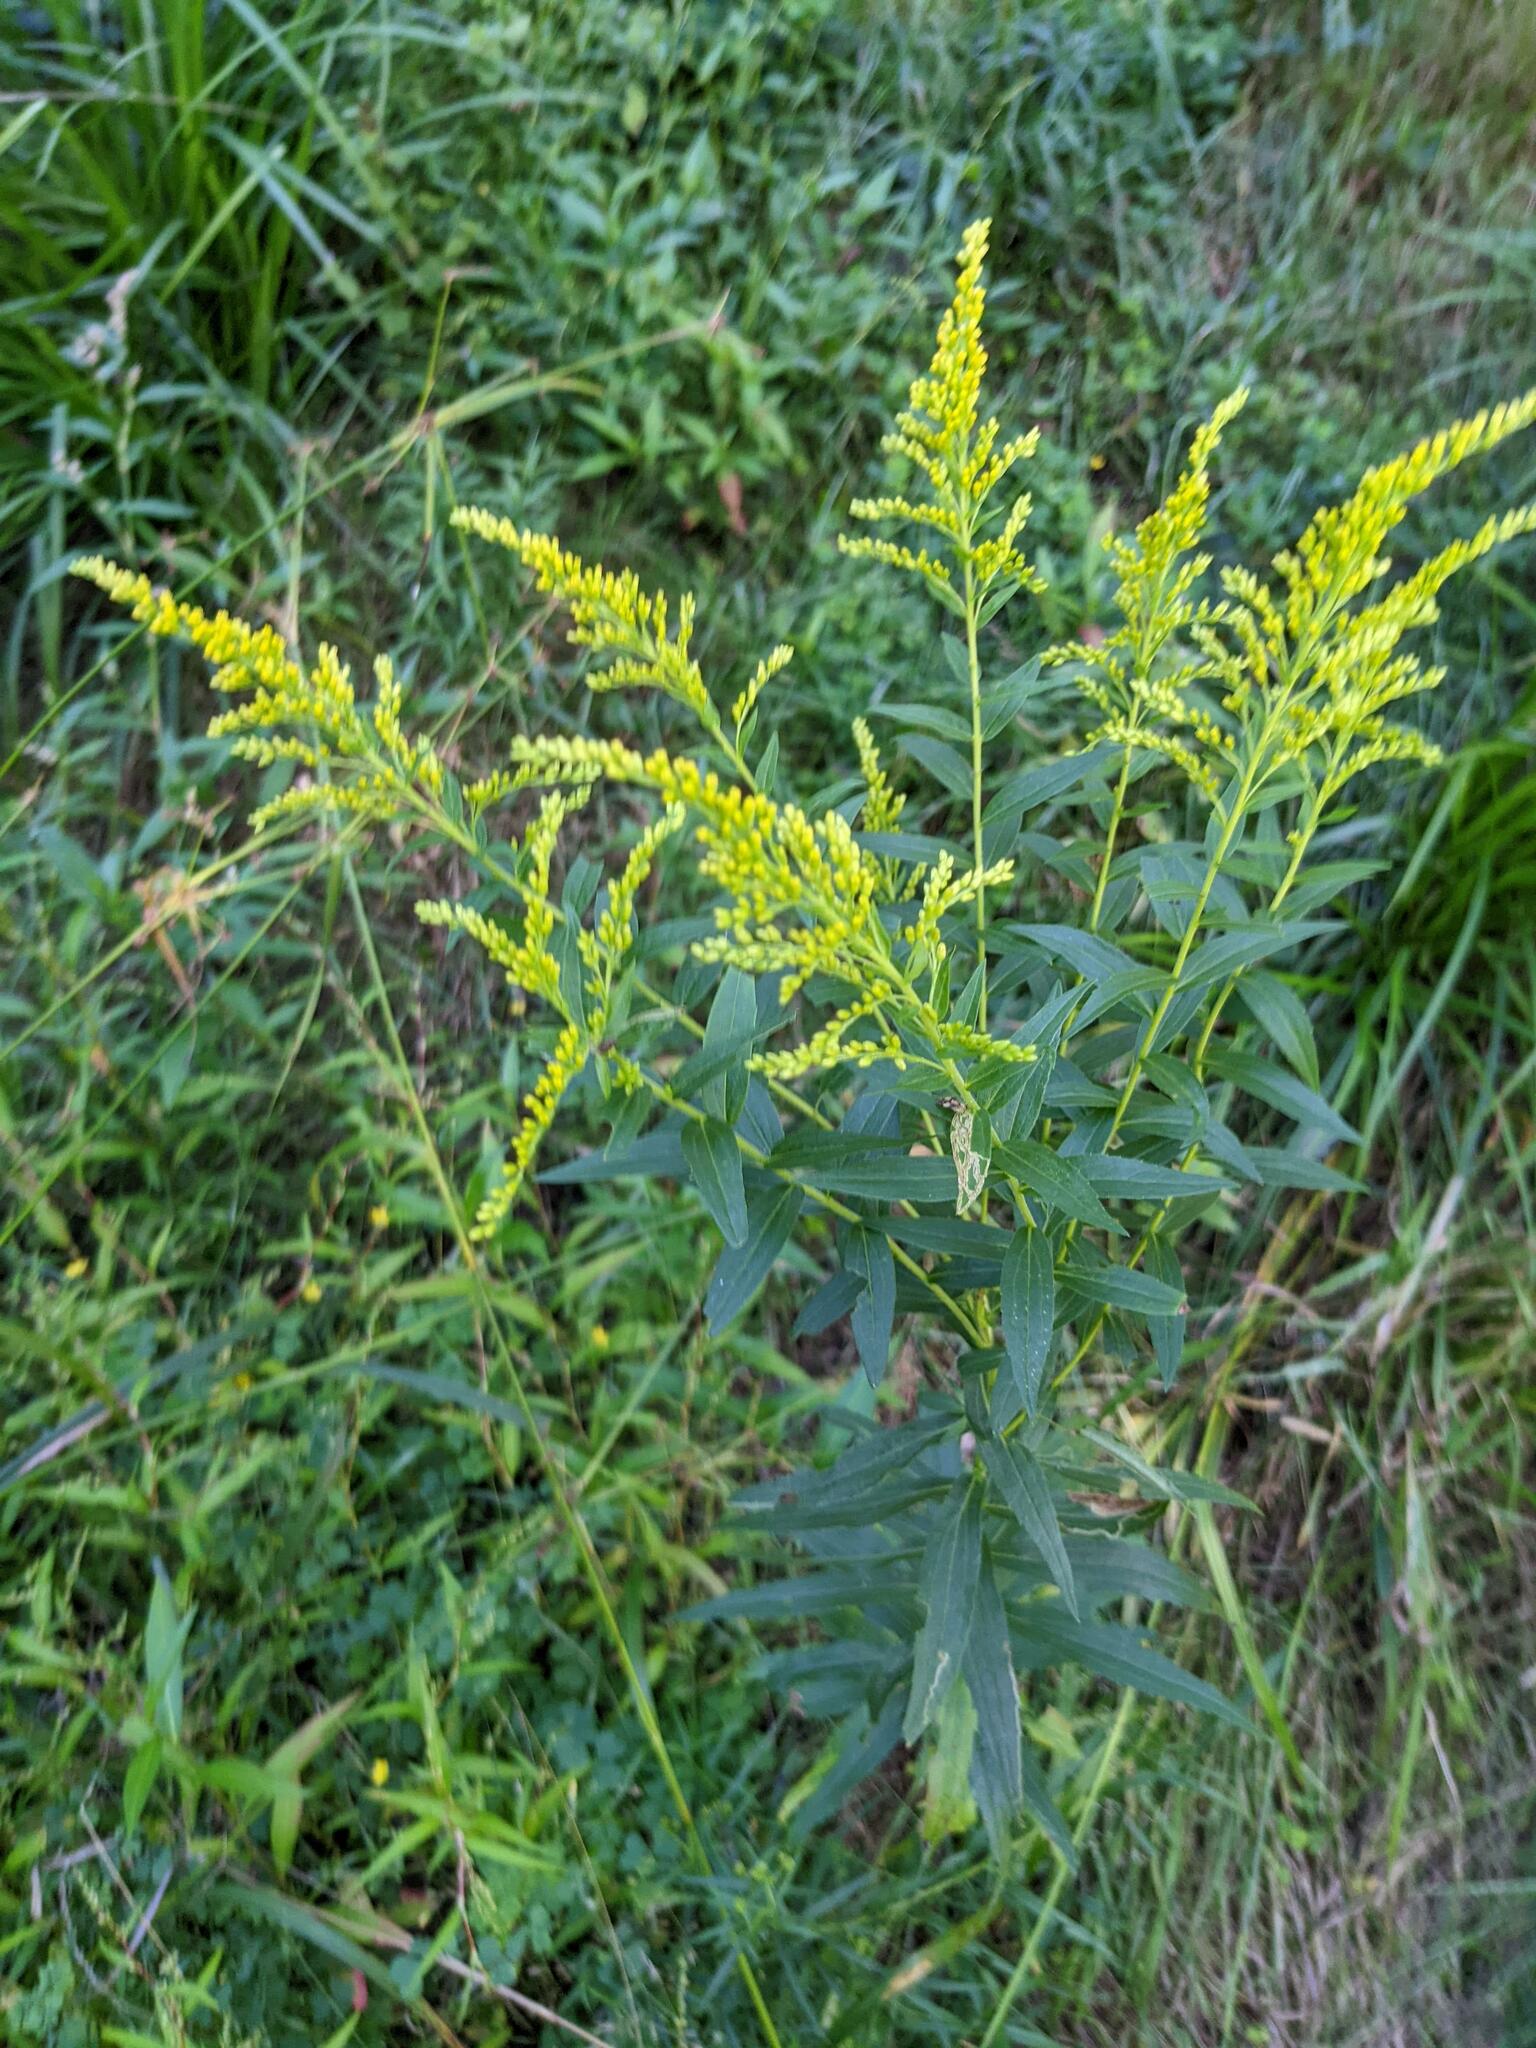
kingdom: Plantae
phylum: Tracheophyta
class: Magnoliopsida
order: Asterales
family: Asteraceae
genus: Solidago
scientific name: Solidago canadensis
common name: Canada goldenrod
